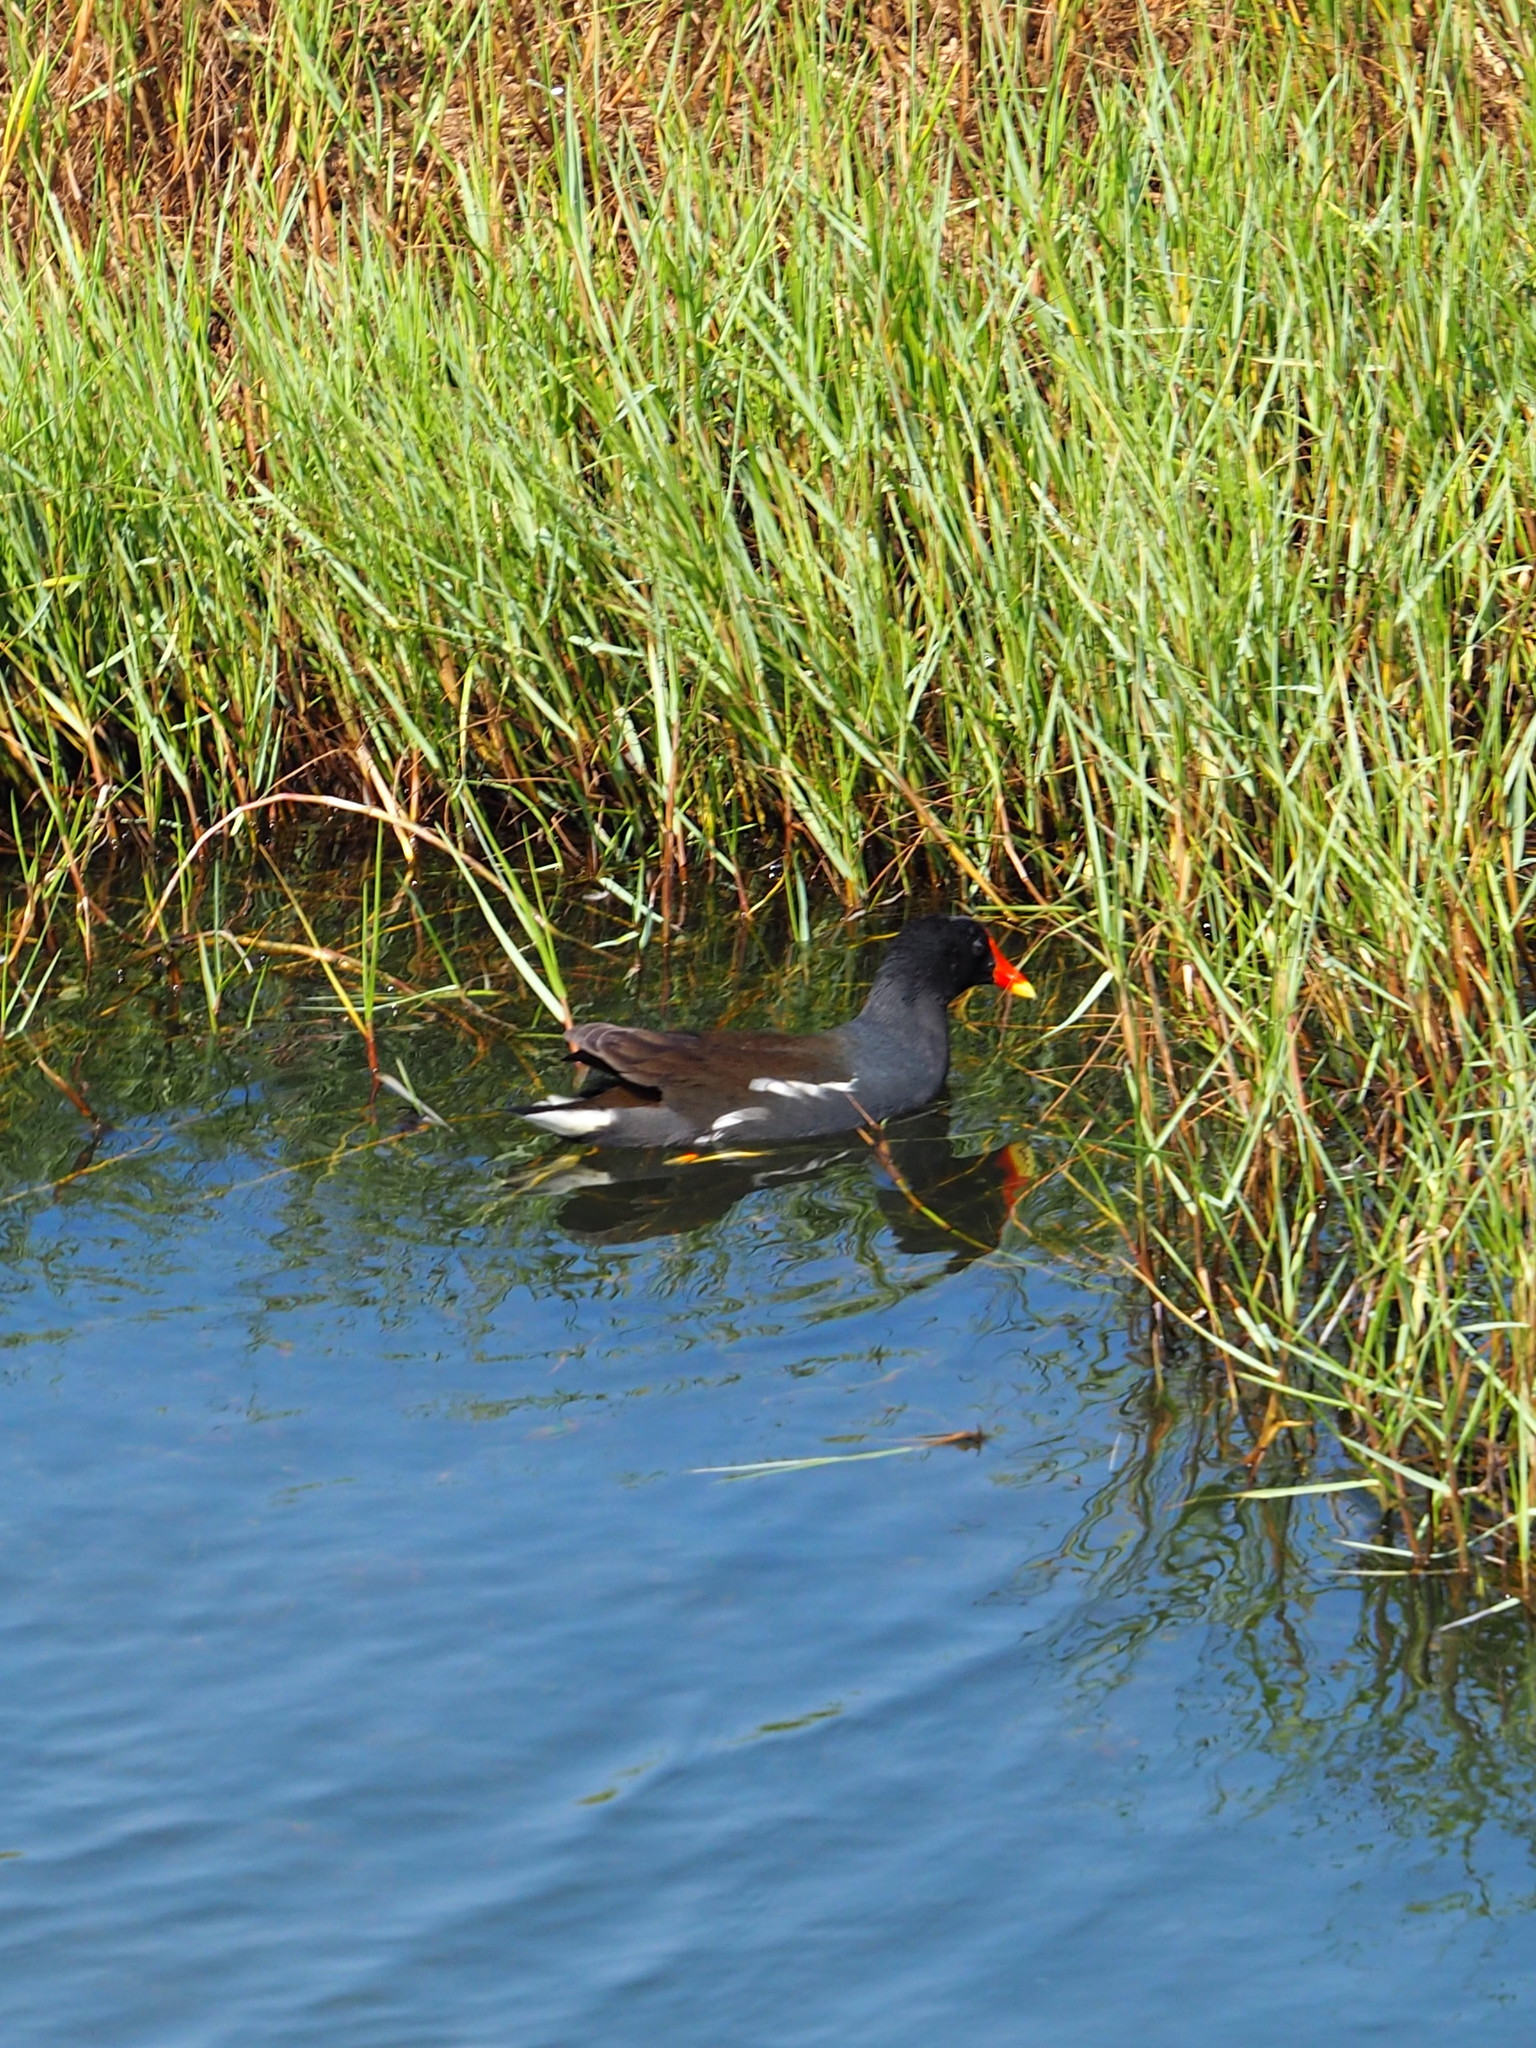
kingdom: Animalia
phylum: Chordata
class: Aves
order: Gruiformes
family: Rallidae
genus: Gallinula
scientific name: Gallinula chloropus
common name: Common moorhen
